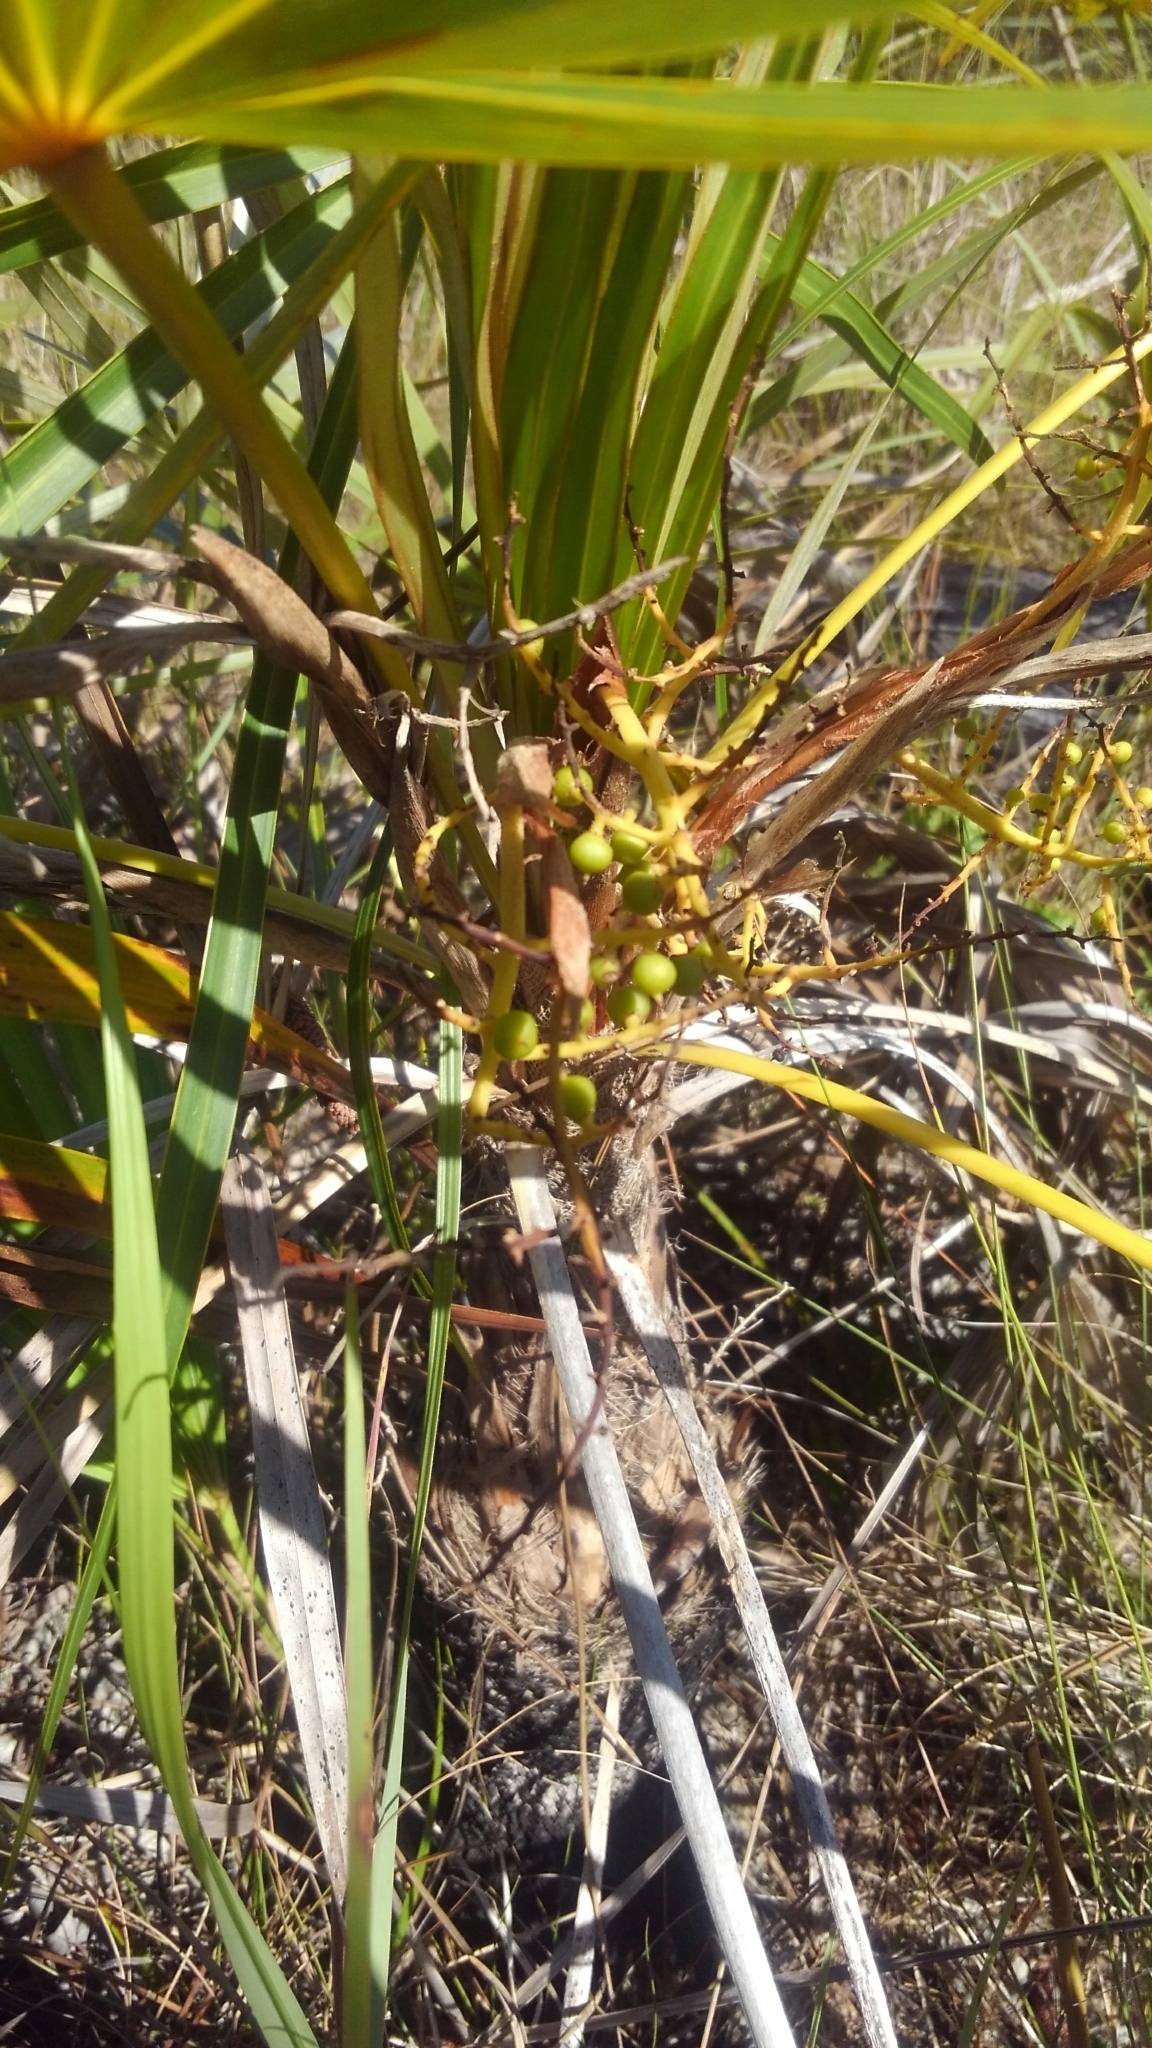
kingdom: Plantae
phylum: Tracheophyta
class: Liliopsida
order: Arecales
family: Arecaceae
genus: Coccothrinax
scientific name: Coccothrinax argentata
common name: Florida silver palm
